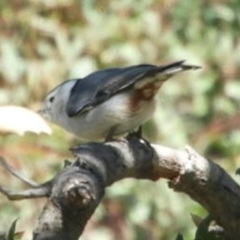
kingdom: Animalia
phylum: Chordata
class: Aves
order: Passeriformes
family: Sittidae
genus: Sitta
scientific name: Sitta carolinensis
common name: White-breasted nuthatch
